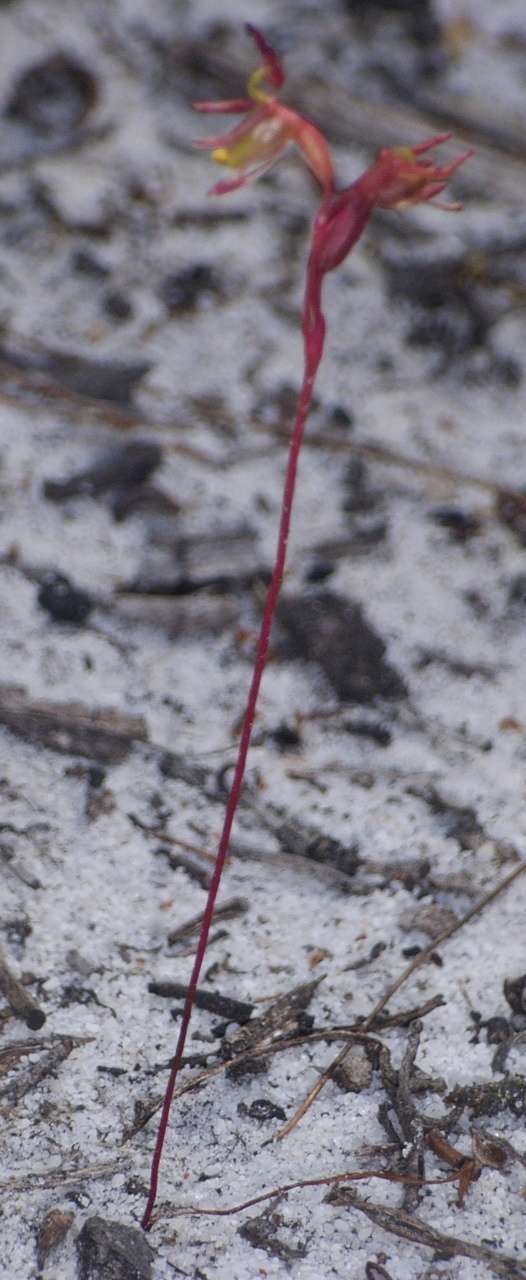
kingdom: Plantae
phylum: Tracheophyta
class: Liliopsida
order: Asparagales
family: Orchidaceae
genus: Caleana
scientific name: Caleana minor
